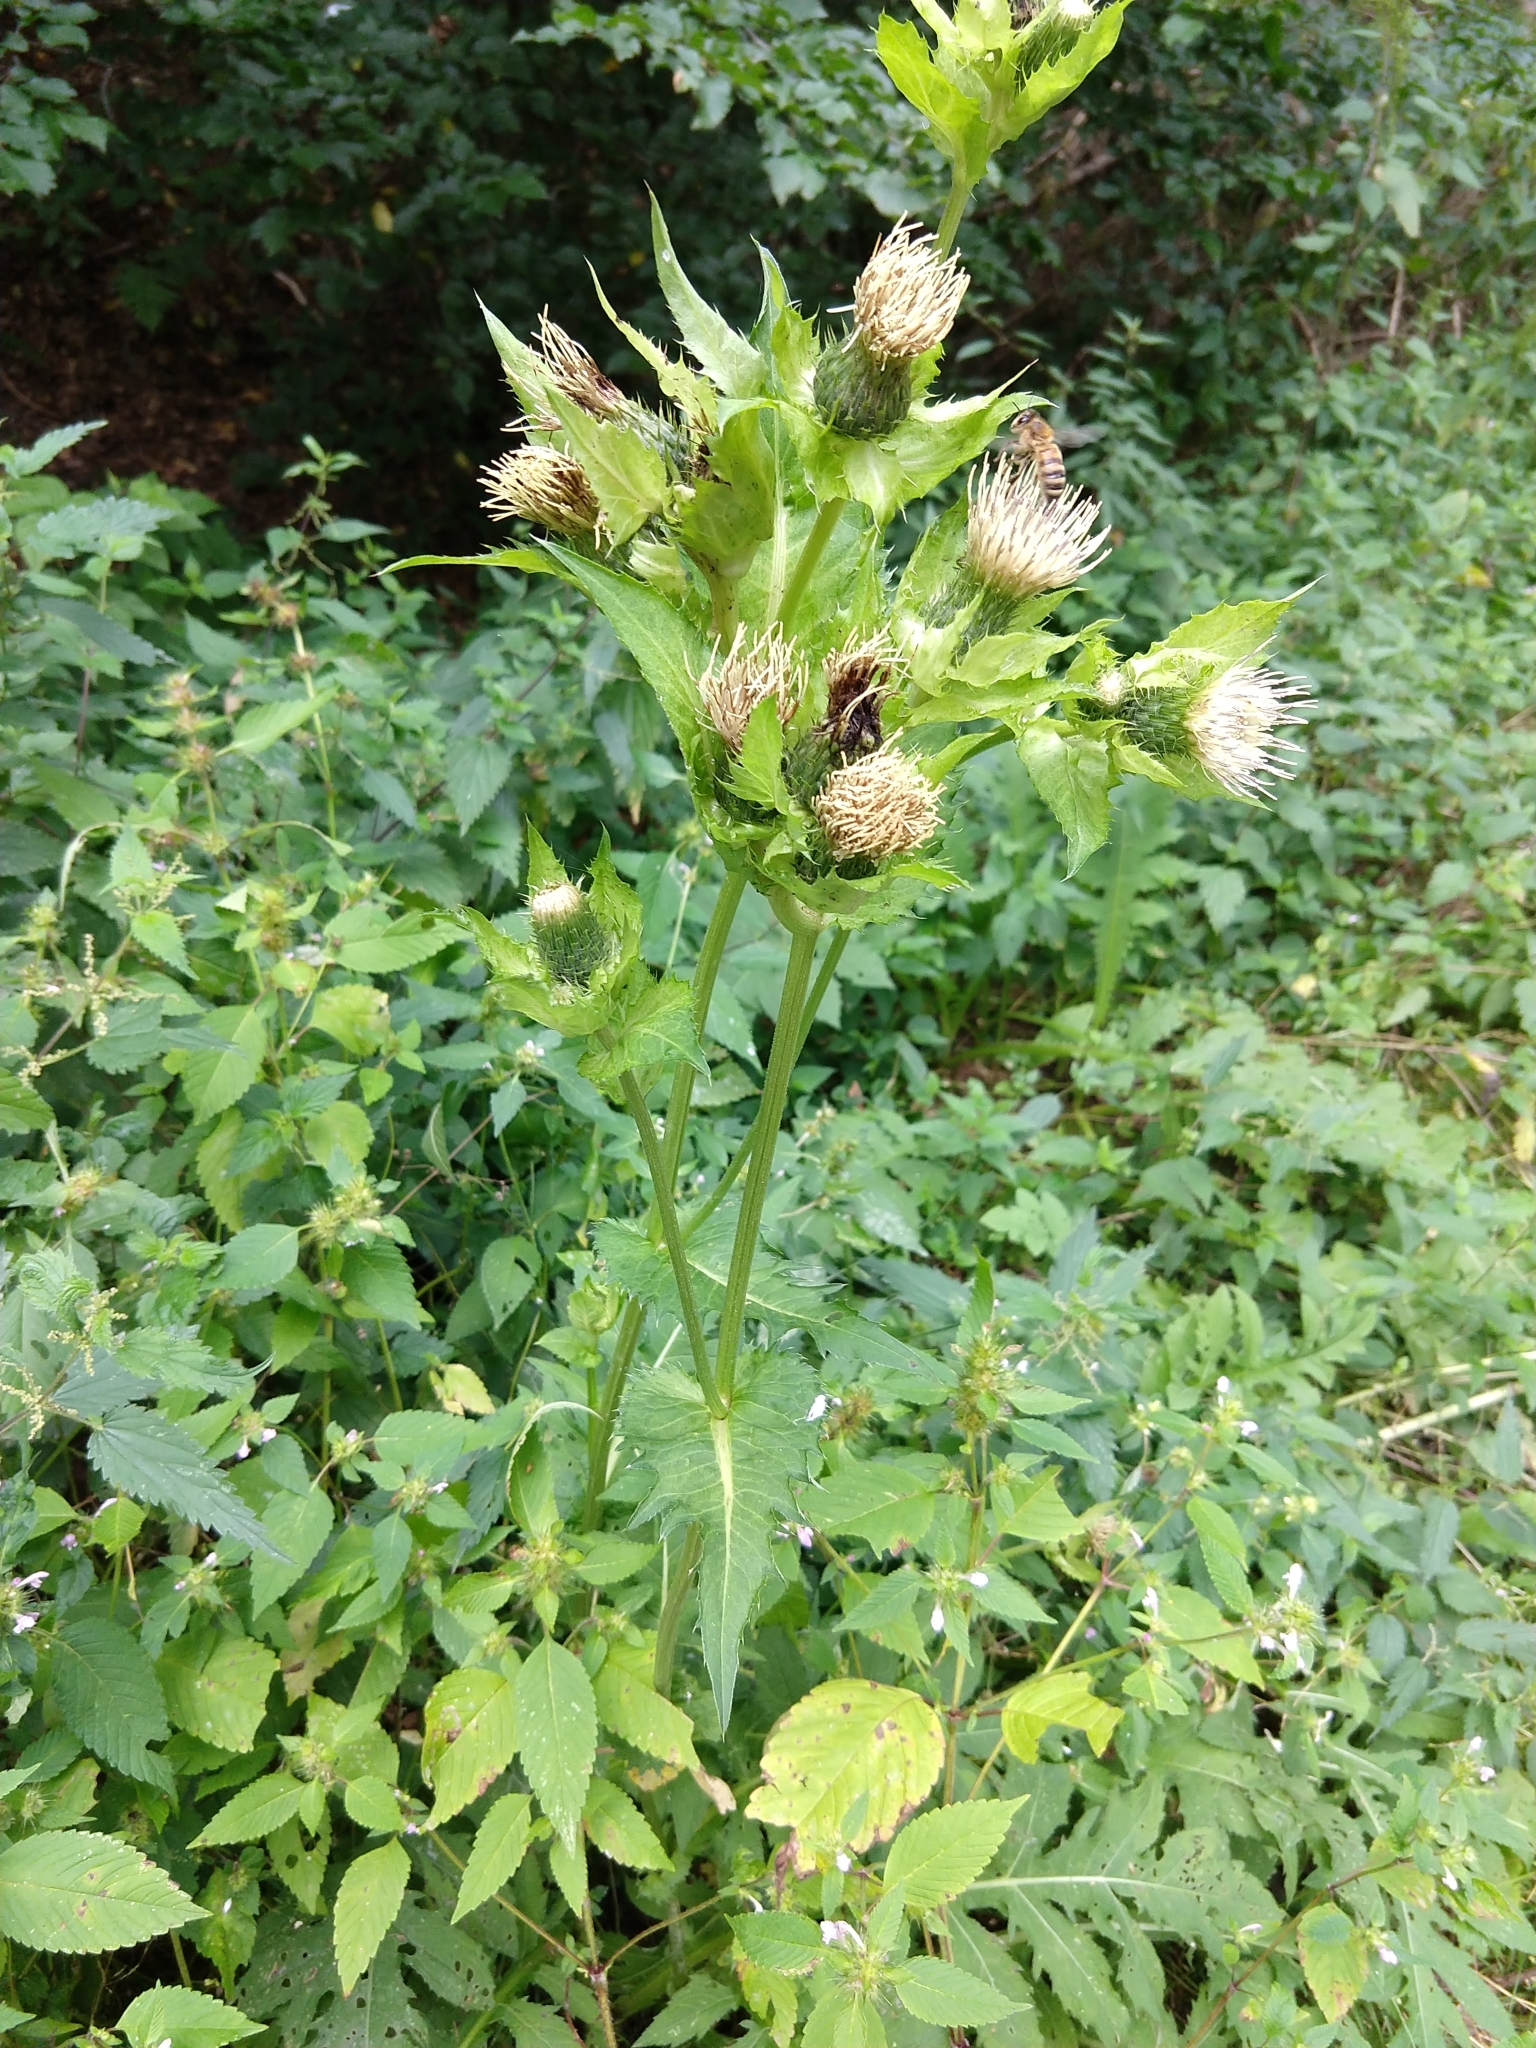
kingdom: Animalia
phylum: Arthropoda
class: Insecta
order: Hymenoptera
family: Apidae
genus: Apis
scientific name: Apis mellifera
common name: Honey bee
